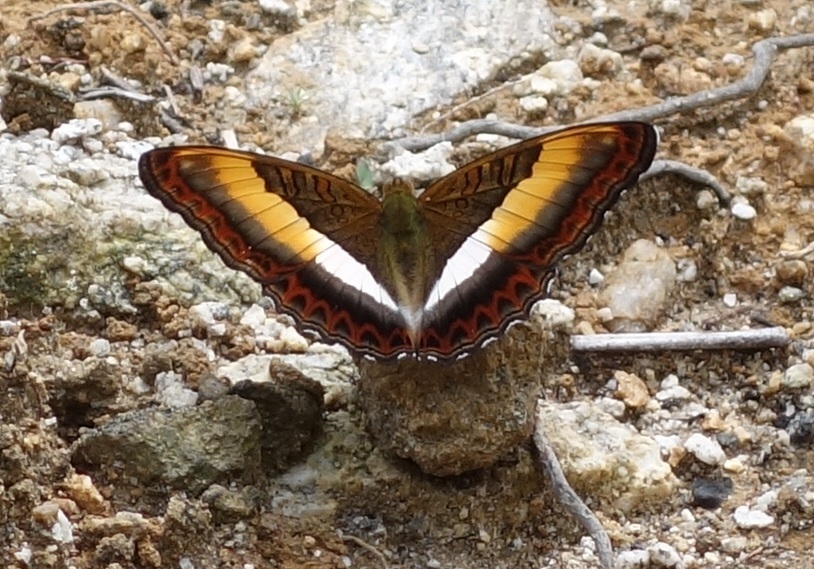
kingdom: Animalia
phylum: Arthropoda
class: Insecta
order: Lepidoptera
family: Nymphalidae
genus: Limenitis
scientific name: Limenitis Parasarpa zayla
